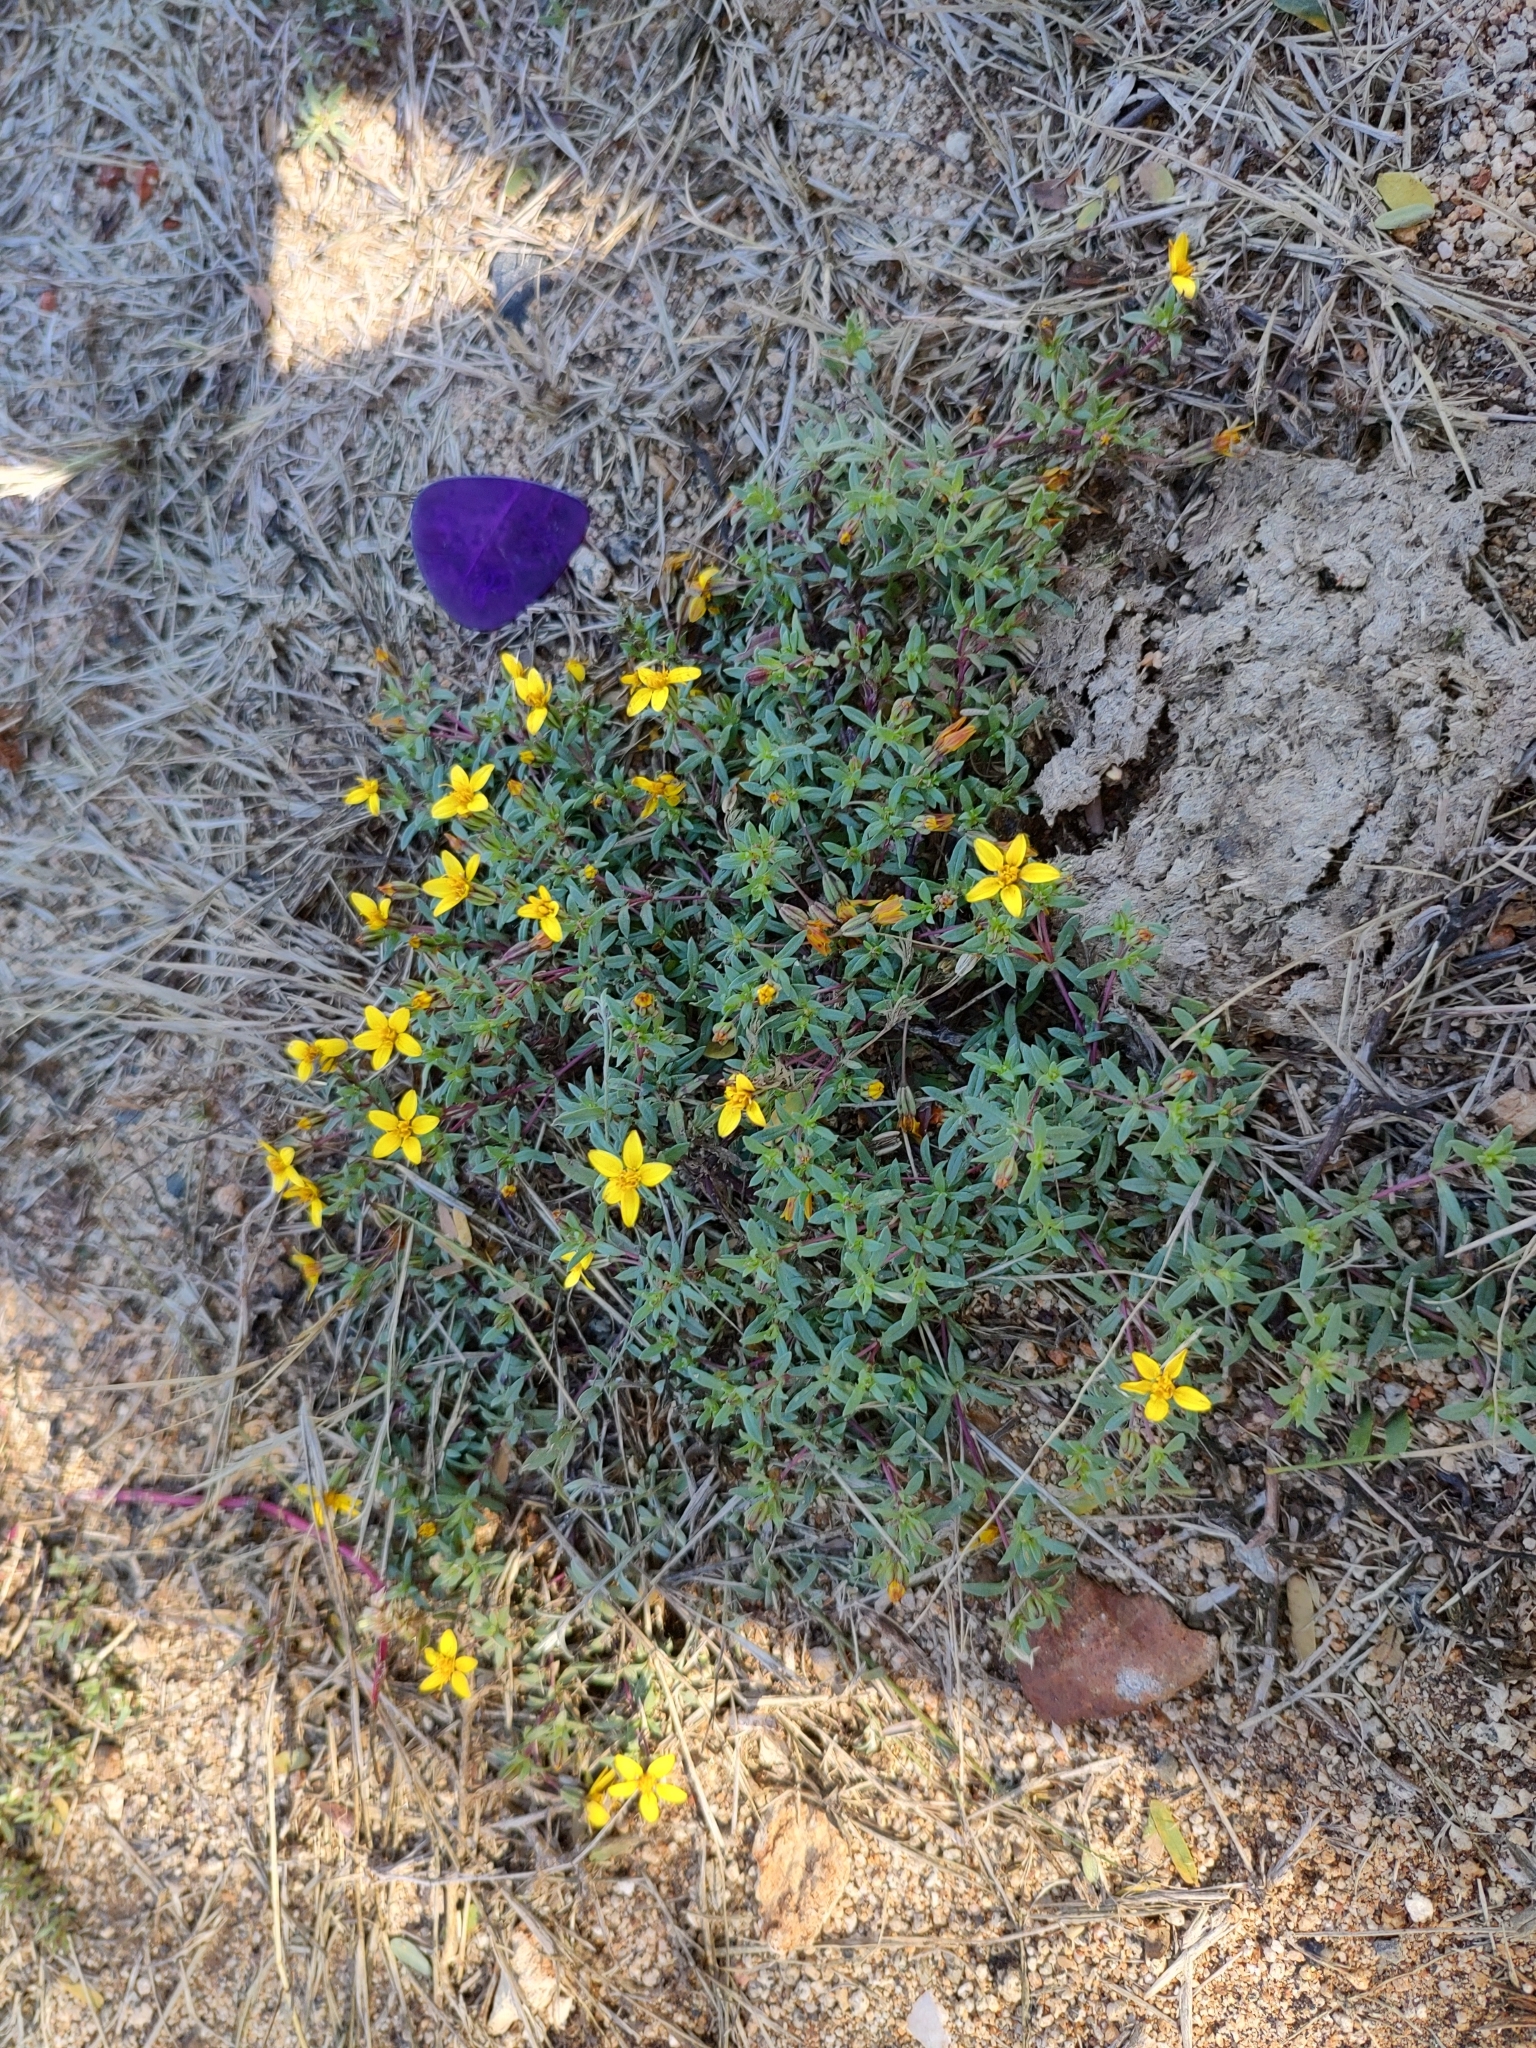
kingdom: Plantae
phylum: Tracheophyta
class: Magnoliopsida
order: Asterales
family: Asteraceae
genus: Pectis
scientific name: Pectis multiseta
